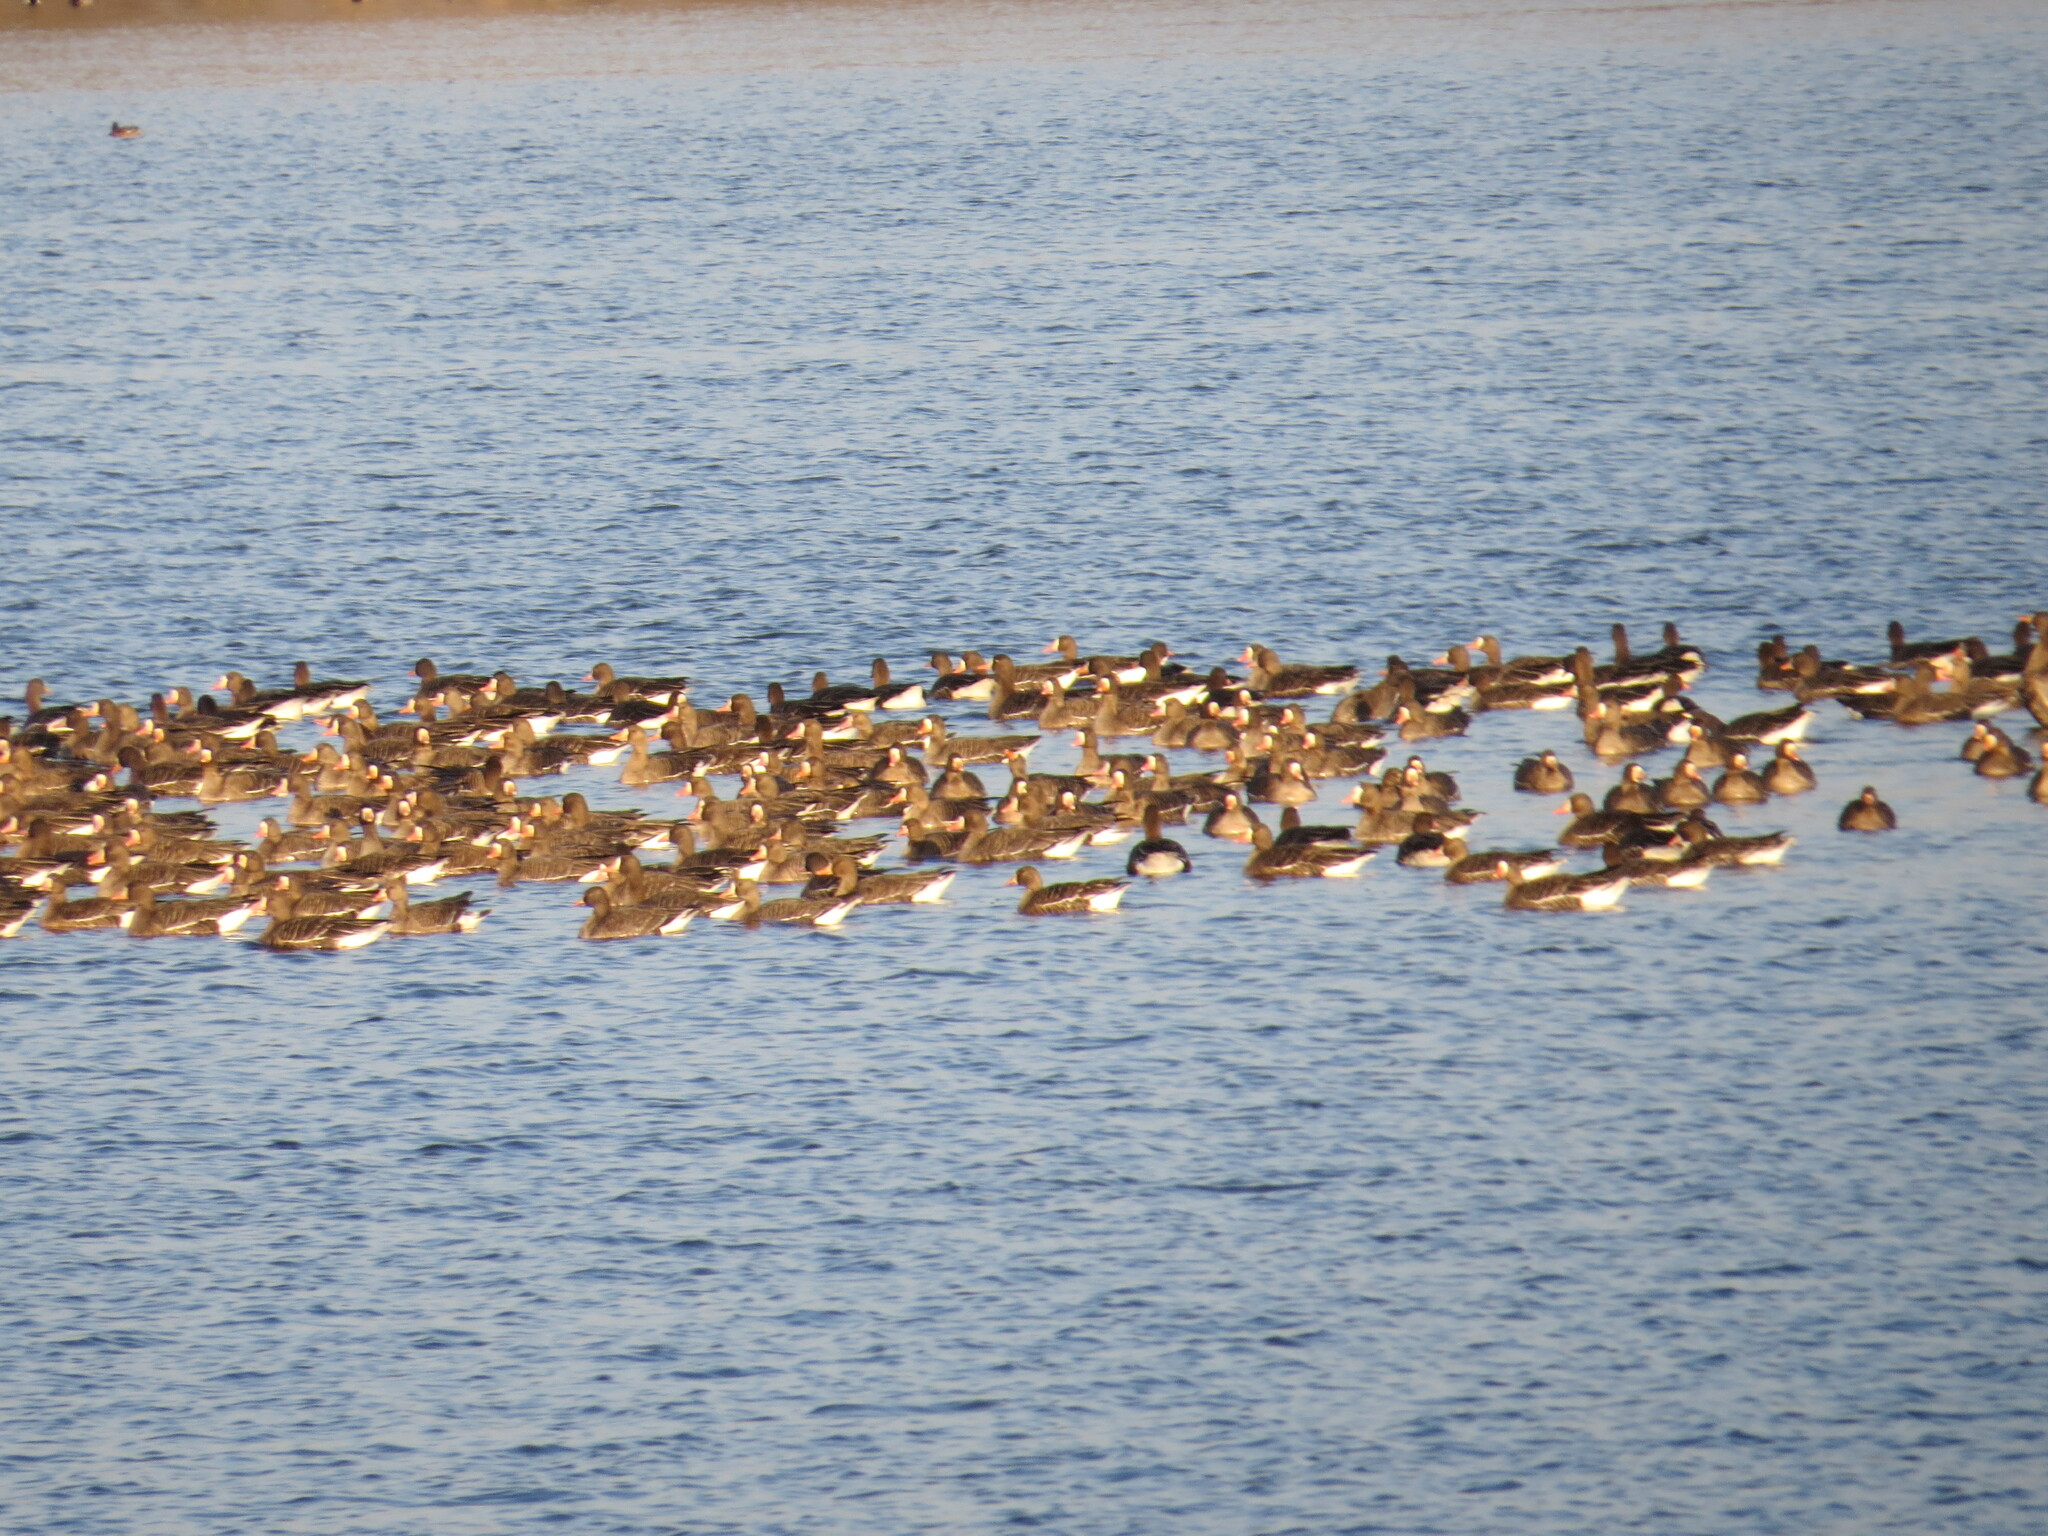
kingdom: Animalia
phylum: Chordata
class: Aves
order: Anseriformes
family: Anatidae
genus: Anser
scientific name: Anser albifrons
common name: Greater white-fronted goose
